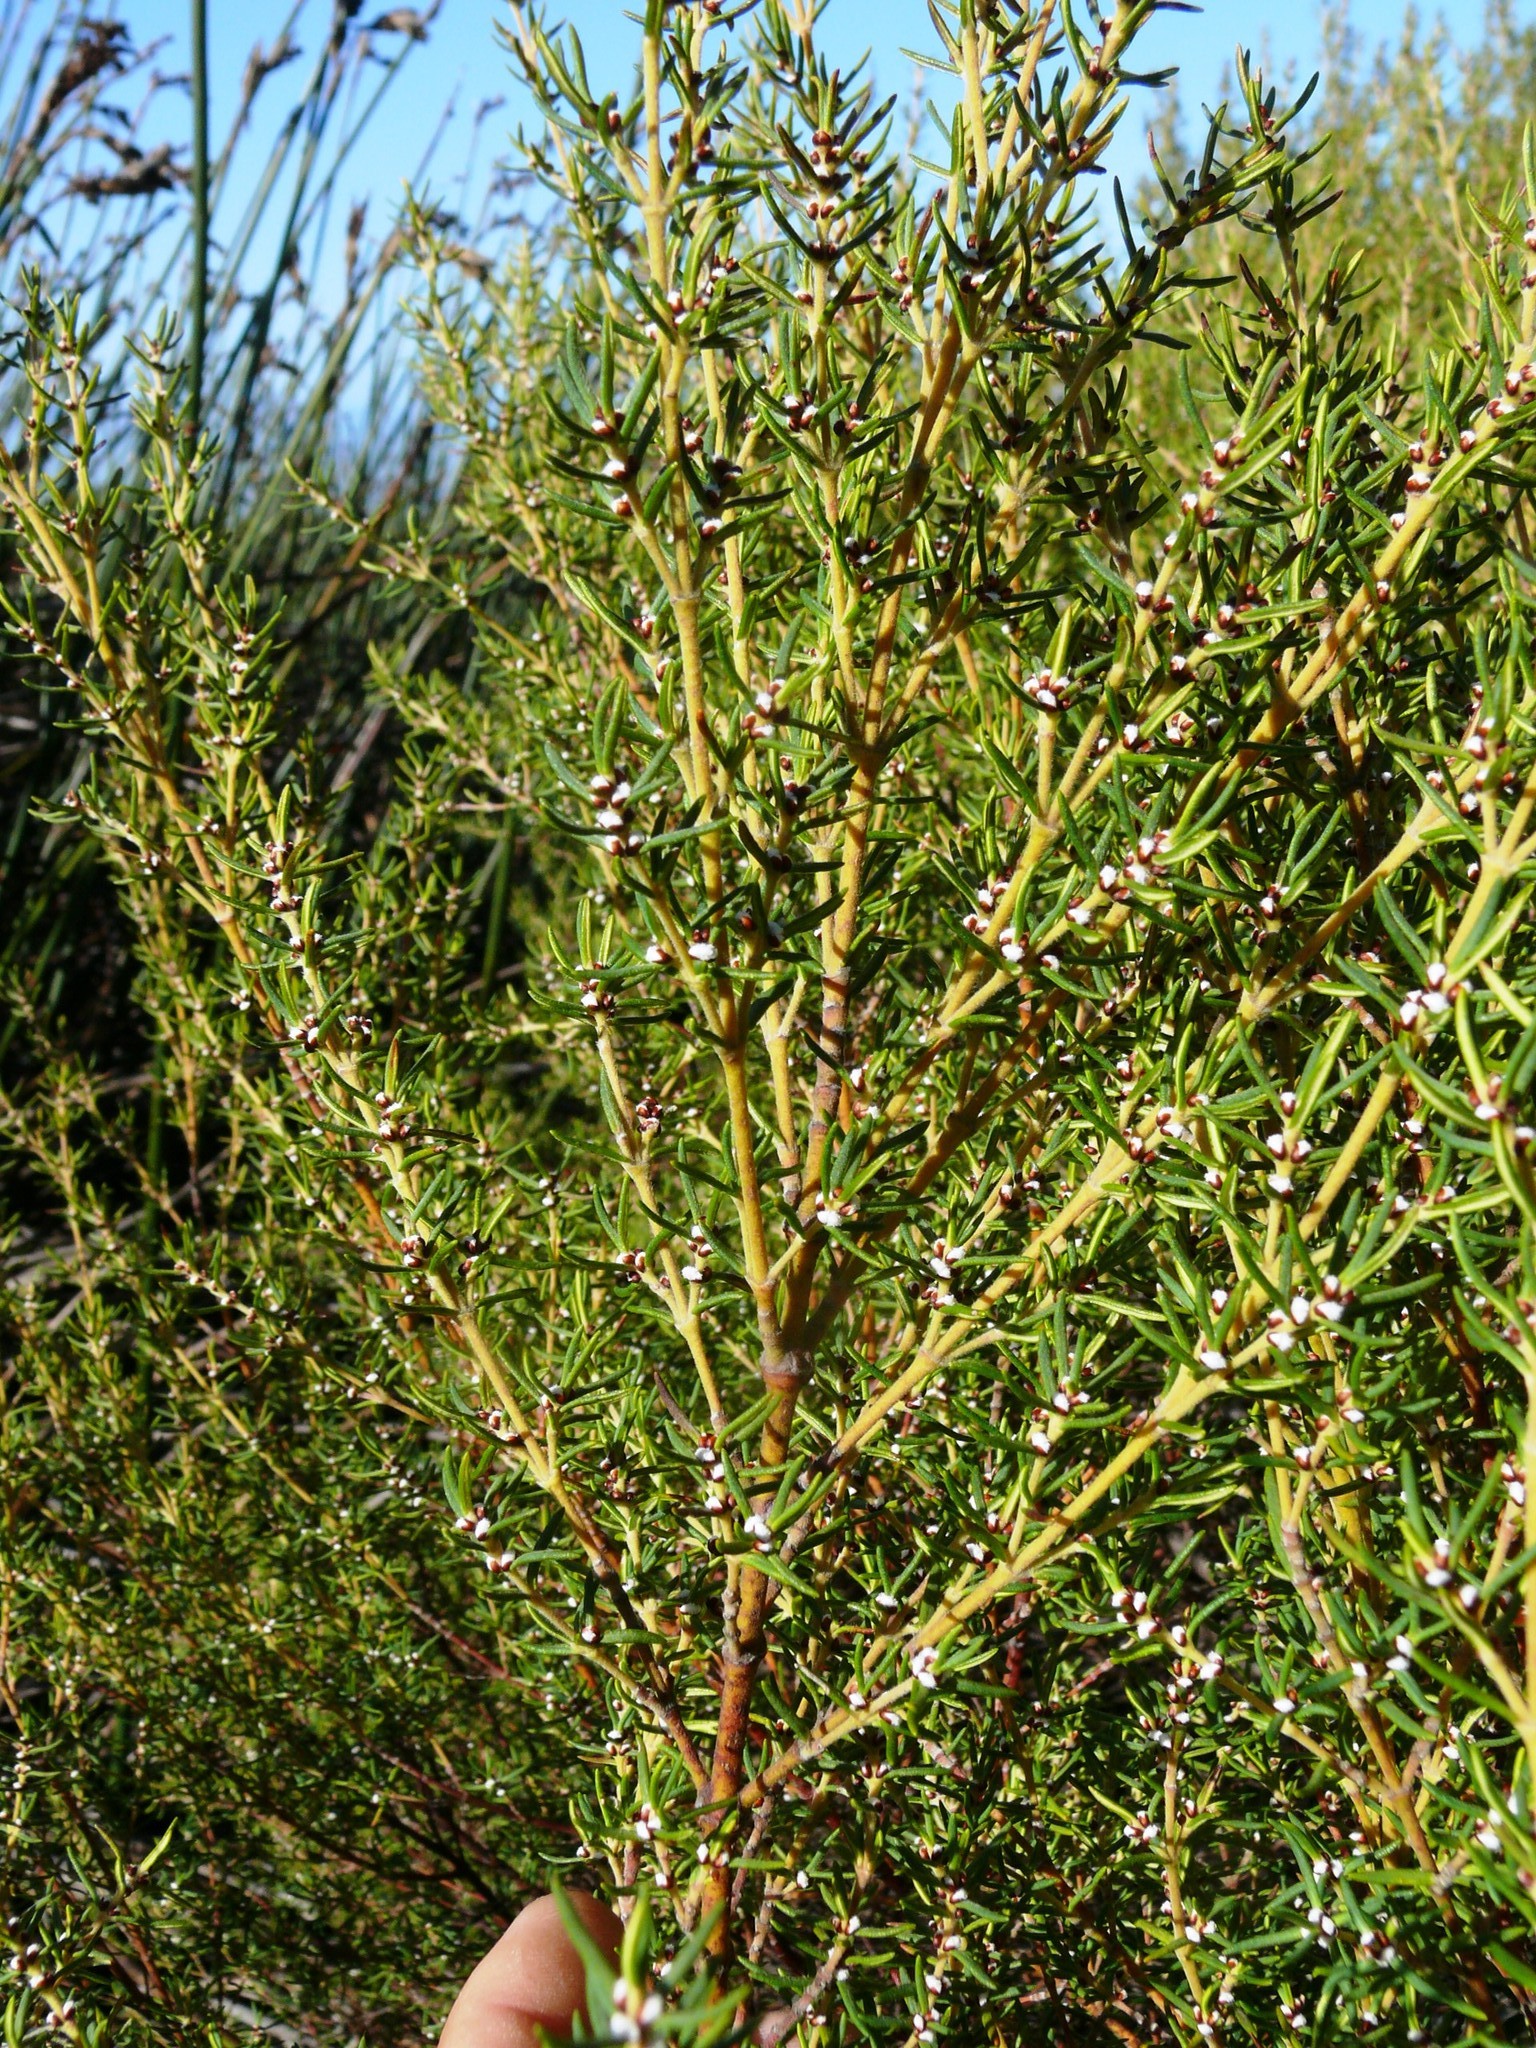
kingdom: Plantae
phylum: Tracheophyta
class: Magnoliopsida
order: Cornales
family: Grubbiaceae
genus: Grubbia
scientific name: Grubbia rosmarinifolia
